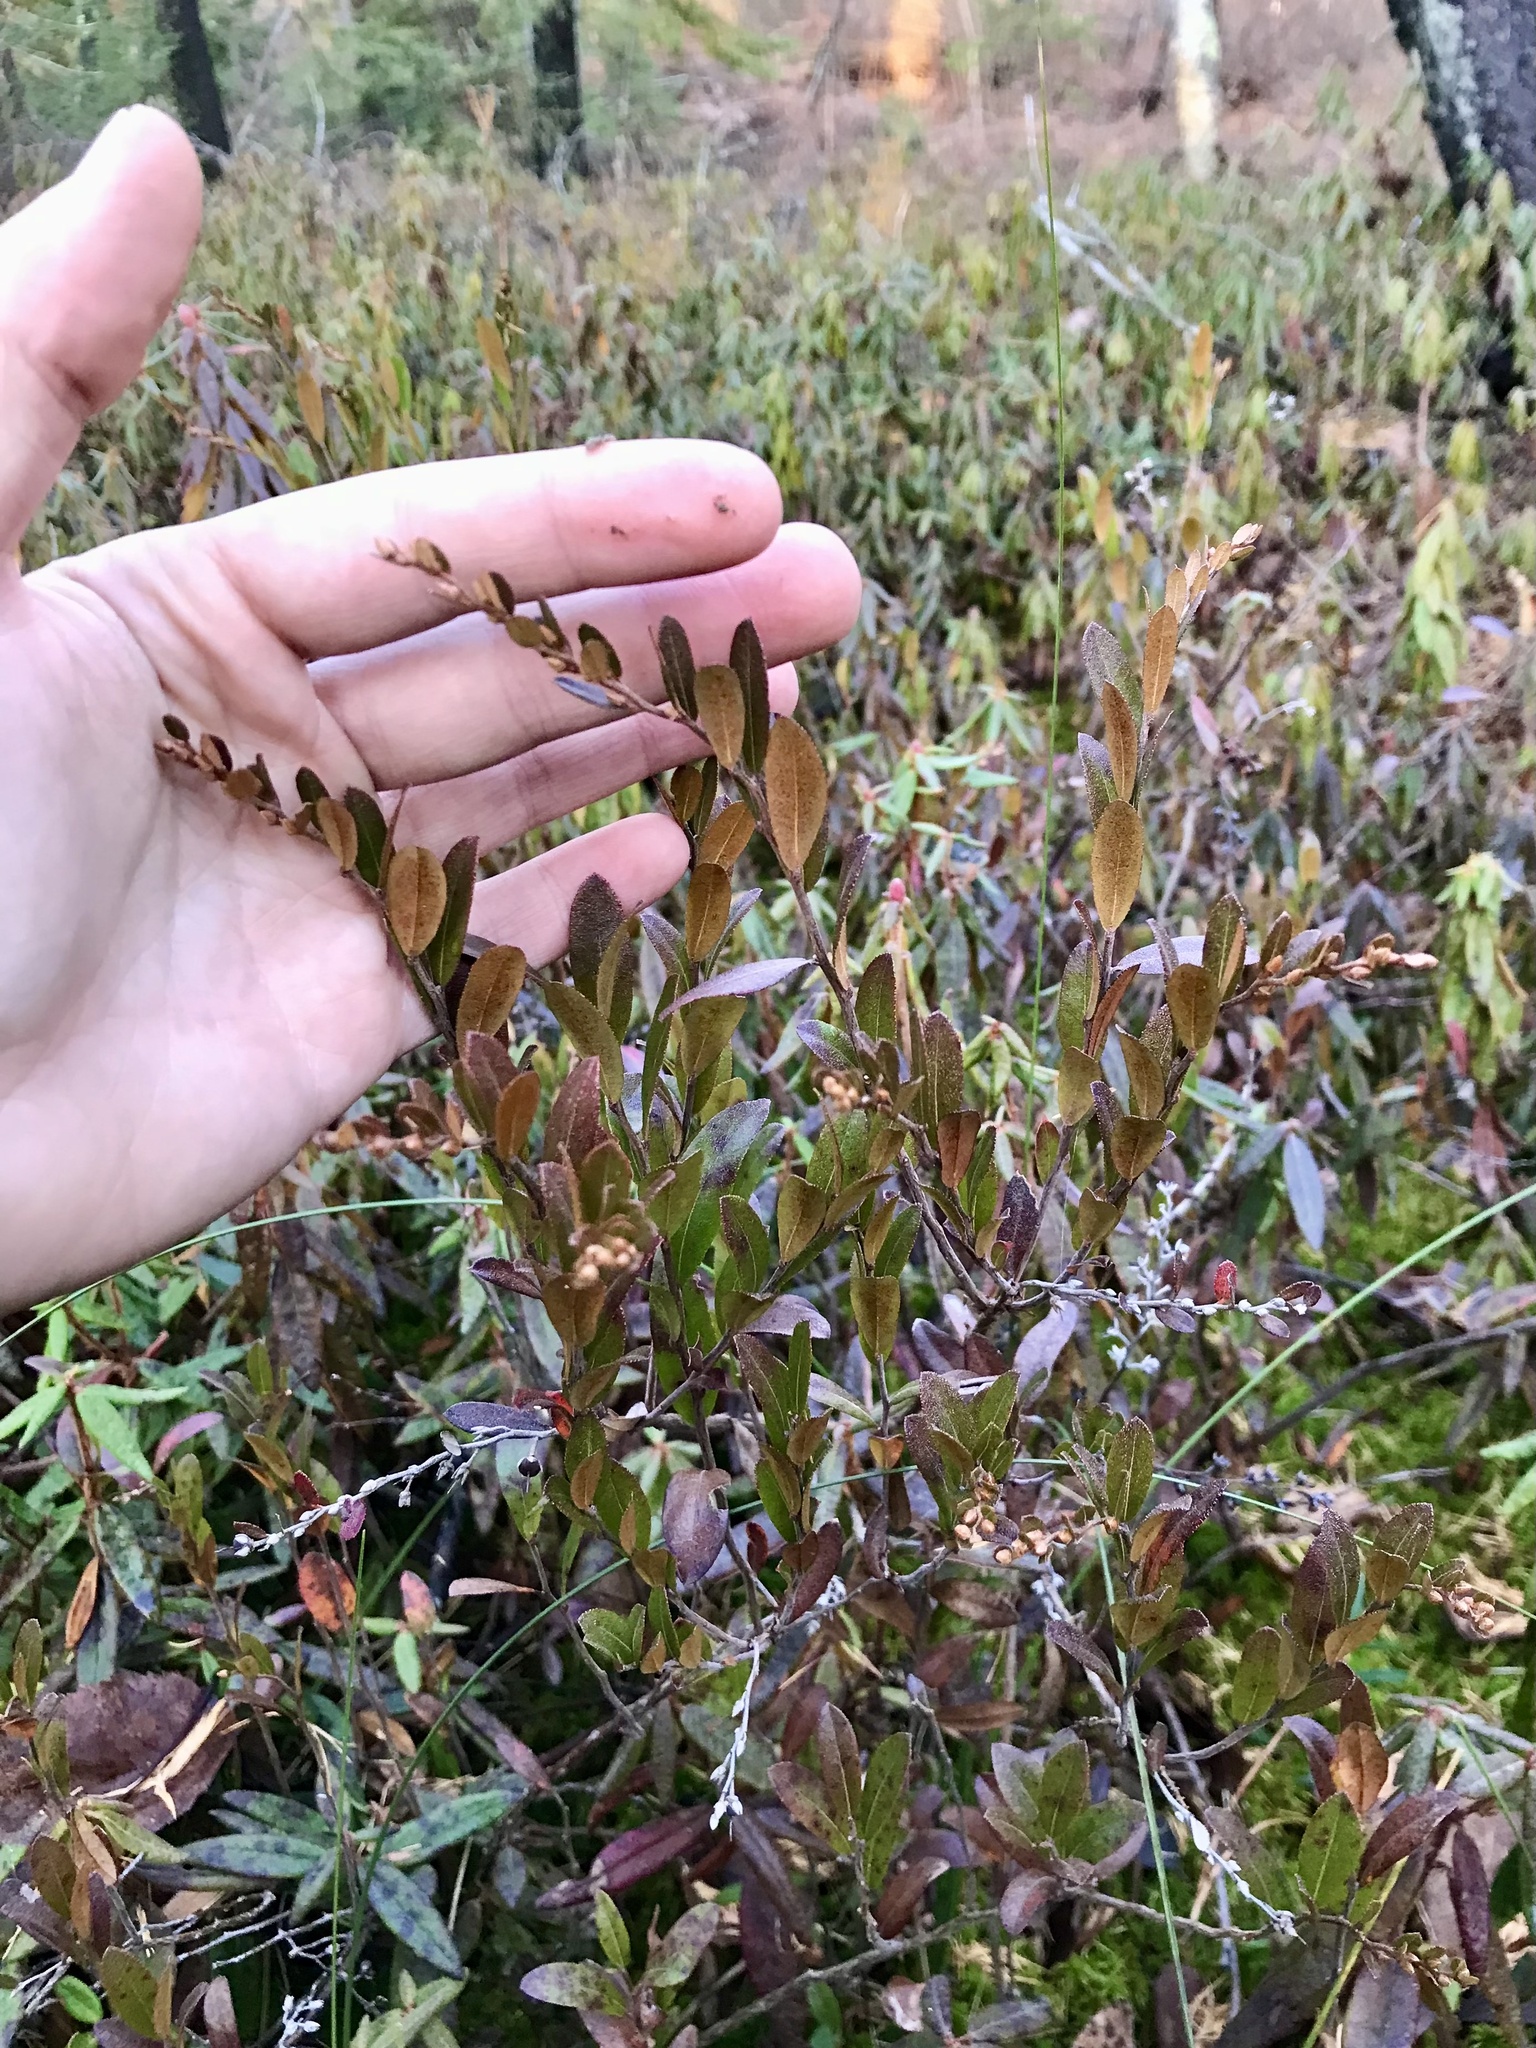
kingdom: Plantae
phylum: Tracheophyta
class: Magnoliopsida
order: Ericales
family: Ericaceae
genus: Chamaedaphne
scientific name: Chamaedaphne calyculata
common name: Leatherleaf
